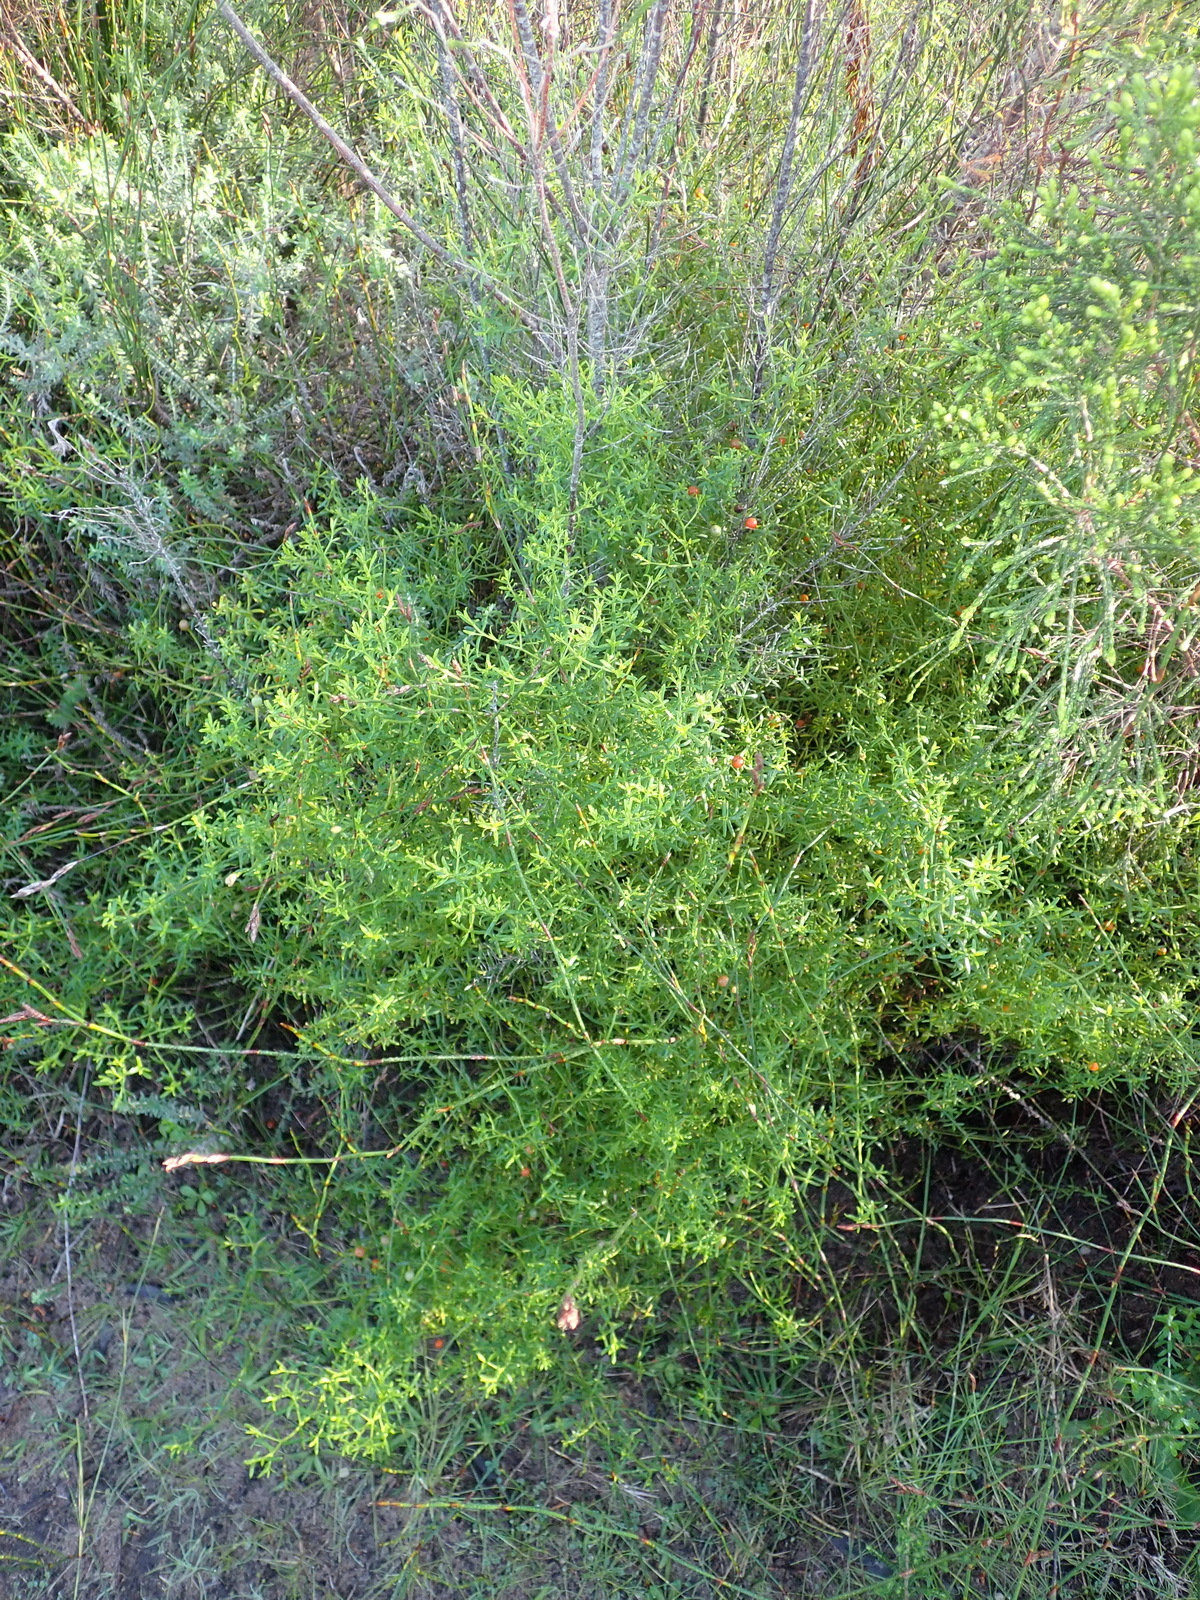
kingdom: Plantae
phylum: Tracheophyta
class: Magnoliopsida
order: Gentianales
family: Gentianaceae
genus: Chironia
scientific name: Chironia baccifera
